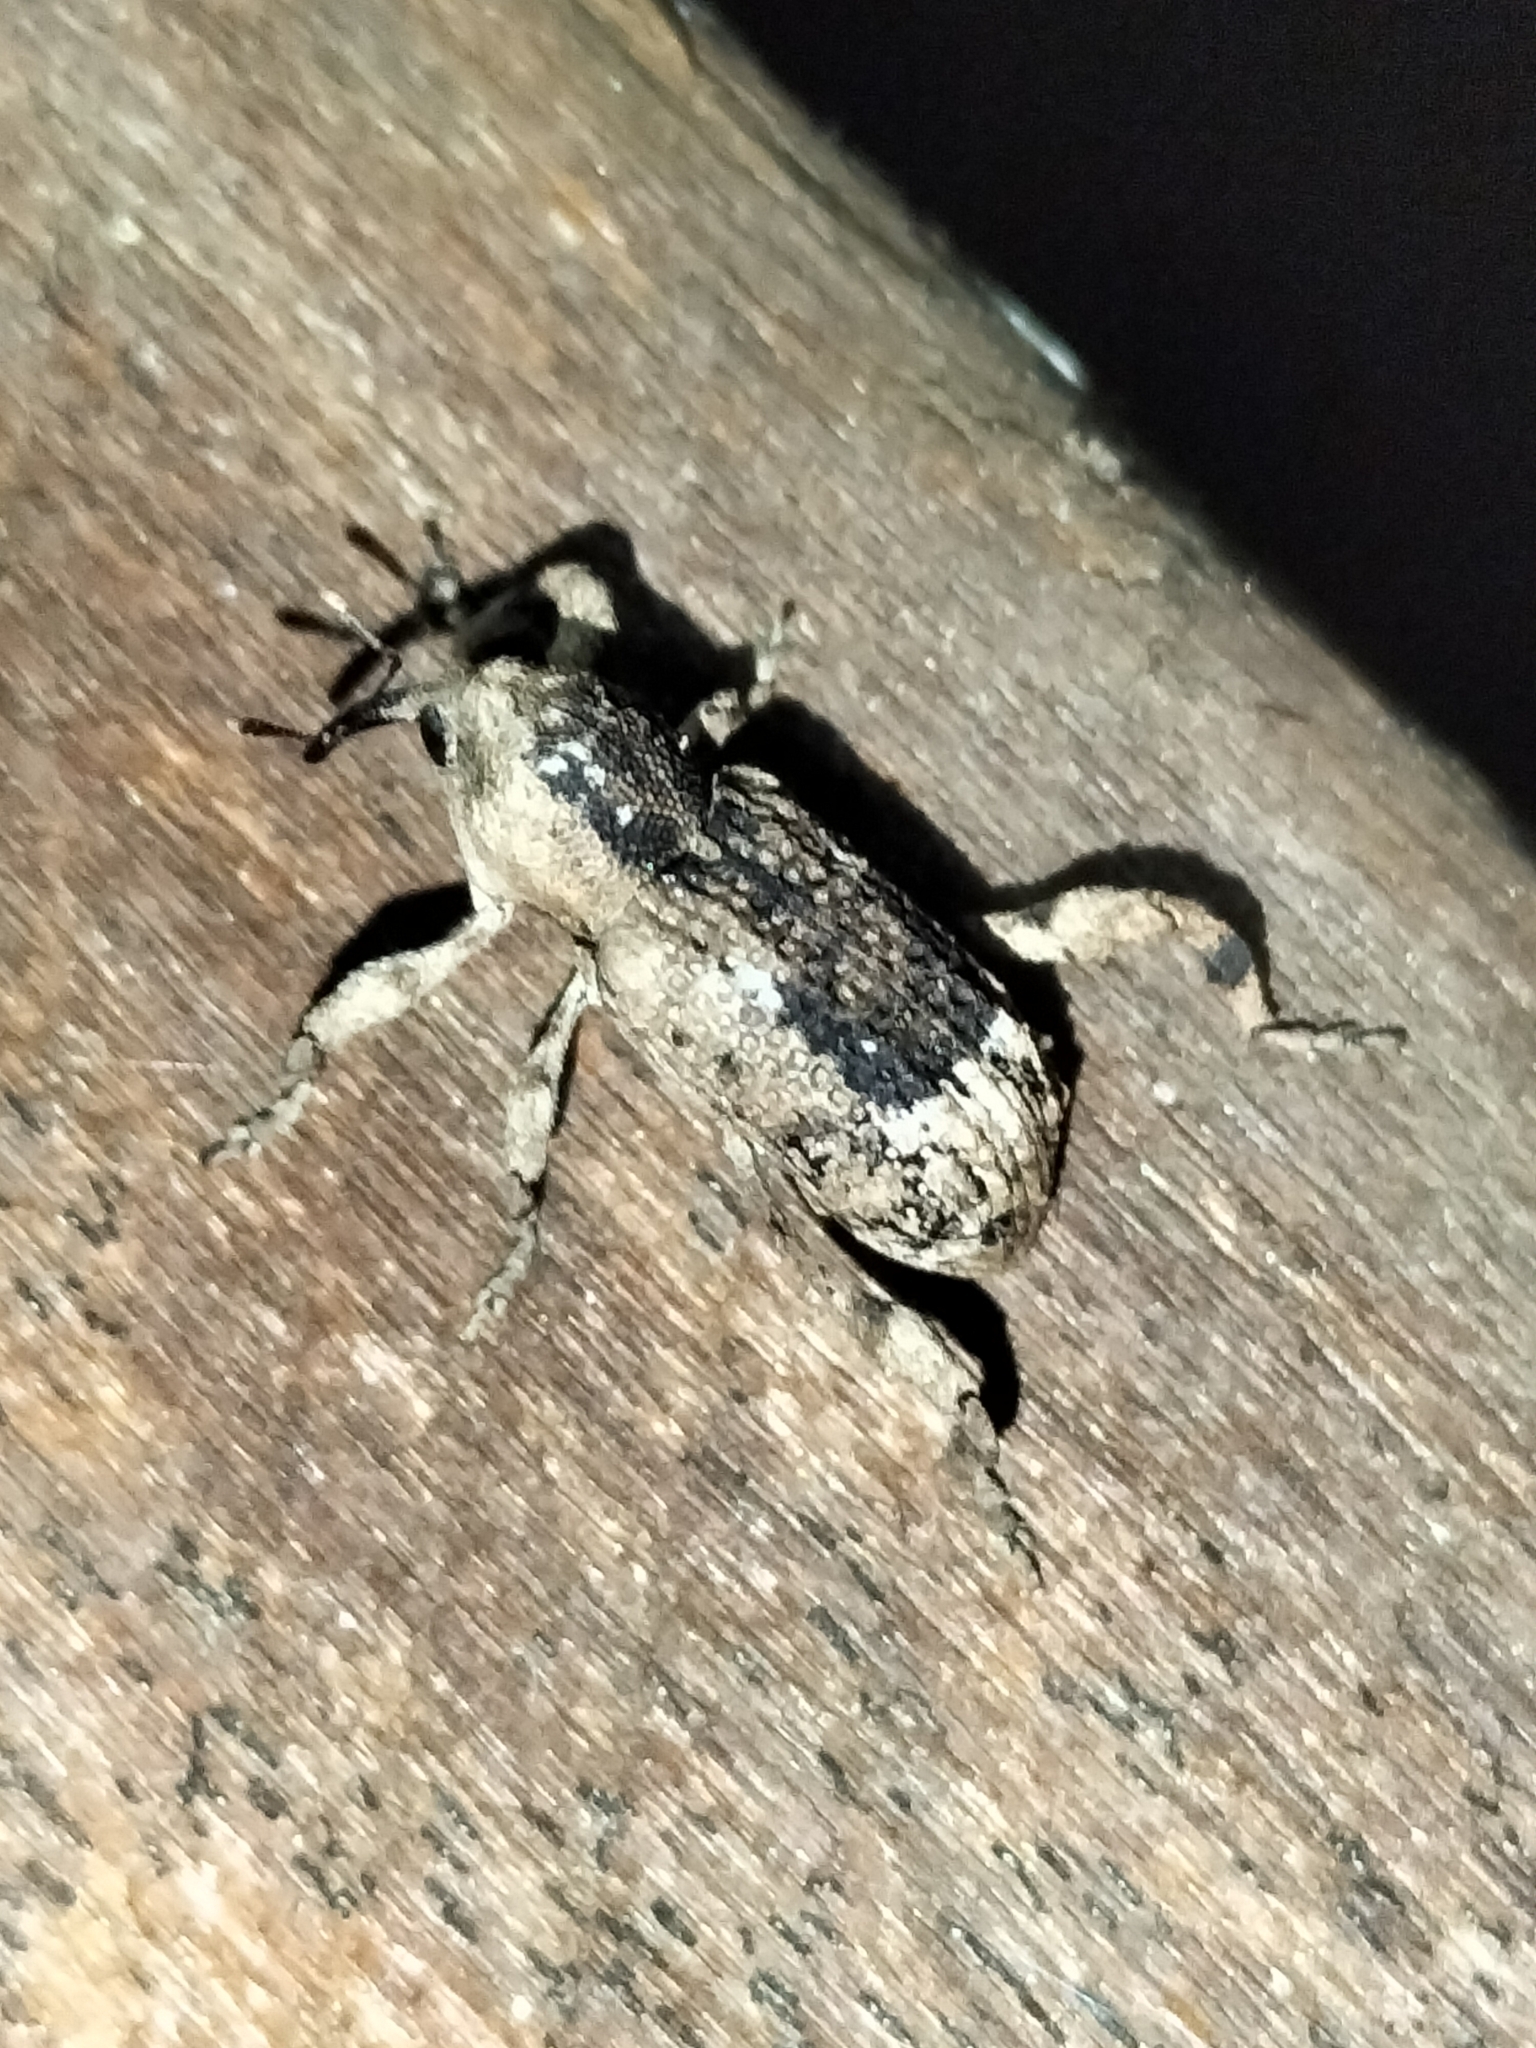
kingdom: Animalia
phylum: Arthropoda
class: Insecta
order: Coleoptera
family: Curculionidae
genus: Camptorhinus
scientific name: Camptorhinus dorsalis
